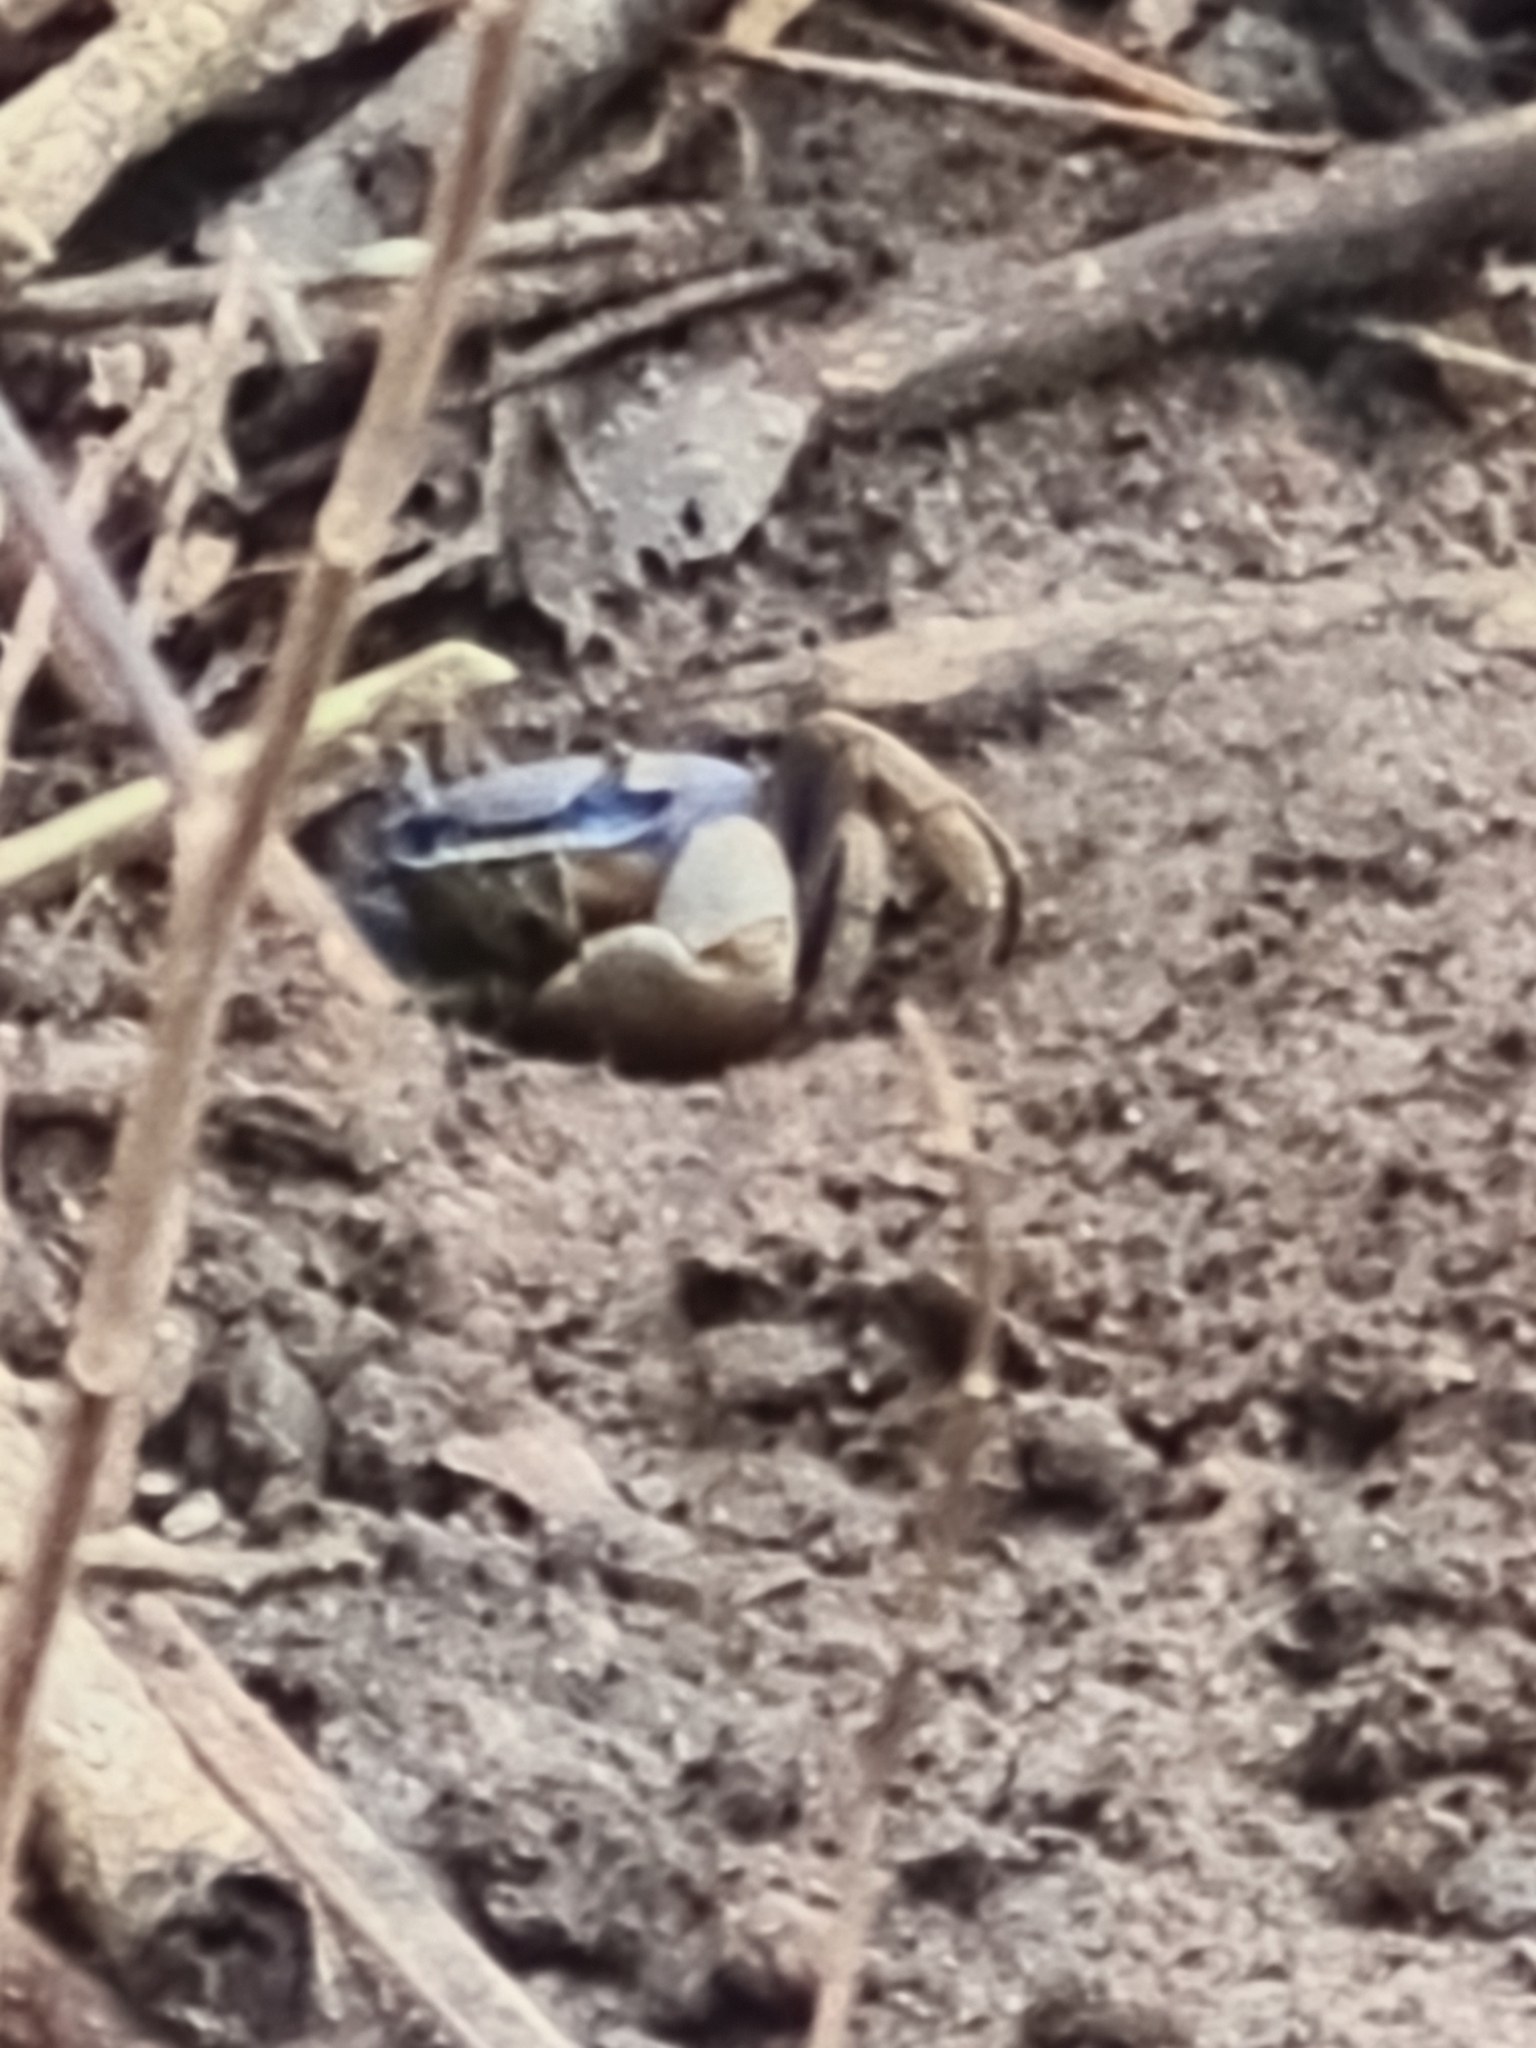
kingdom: Animalia
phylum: Arthropoda
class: Malacostraca
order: Decapoda
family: Gecarcinidae
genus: Cardisoma
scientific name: Cardisoma guanhumi
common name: Great land crab
